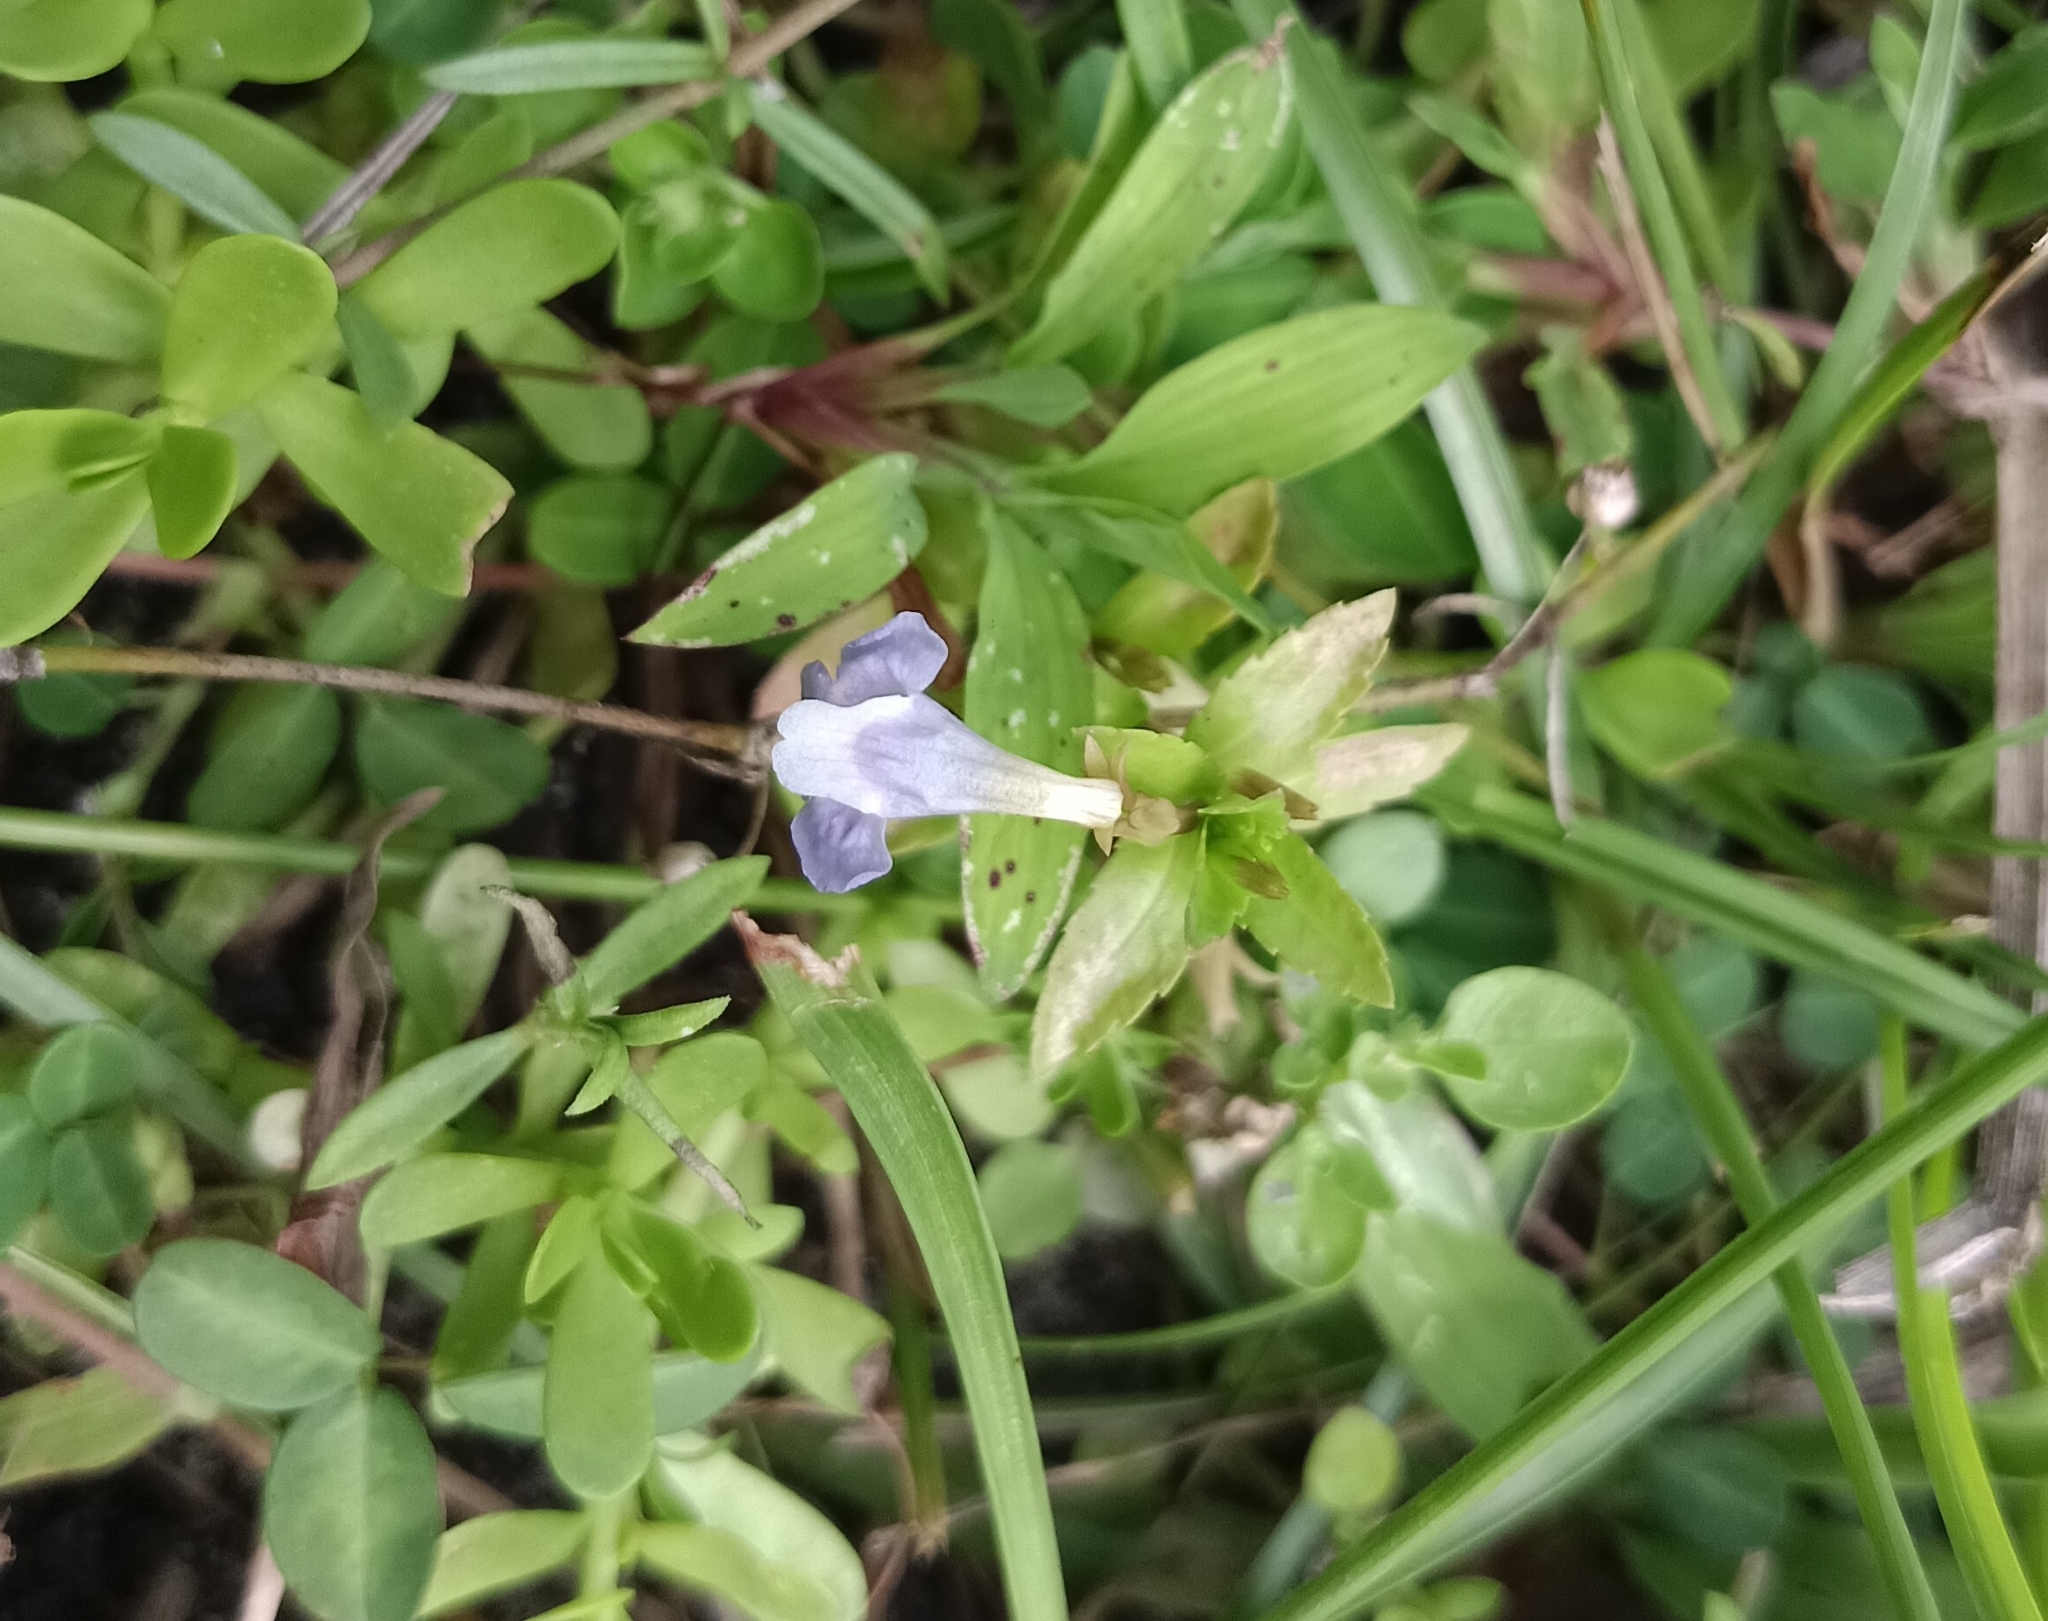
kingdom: Plantae
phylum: Tracheophyta
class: Magnoliopsida
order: Lamiales
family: Linderniaceae
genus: Bonnaya
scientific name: Bonnaya antipoda
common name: Sparrow false pimpernel
